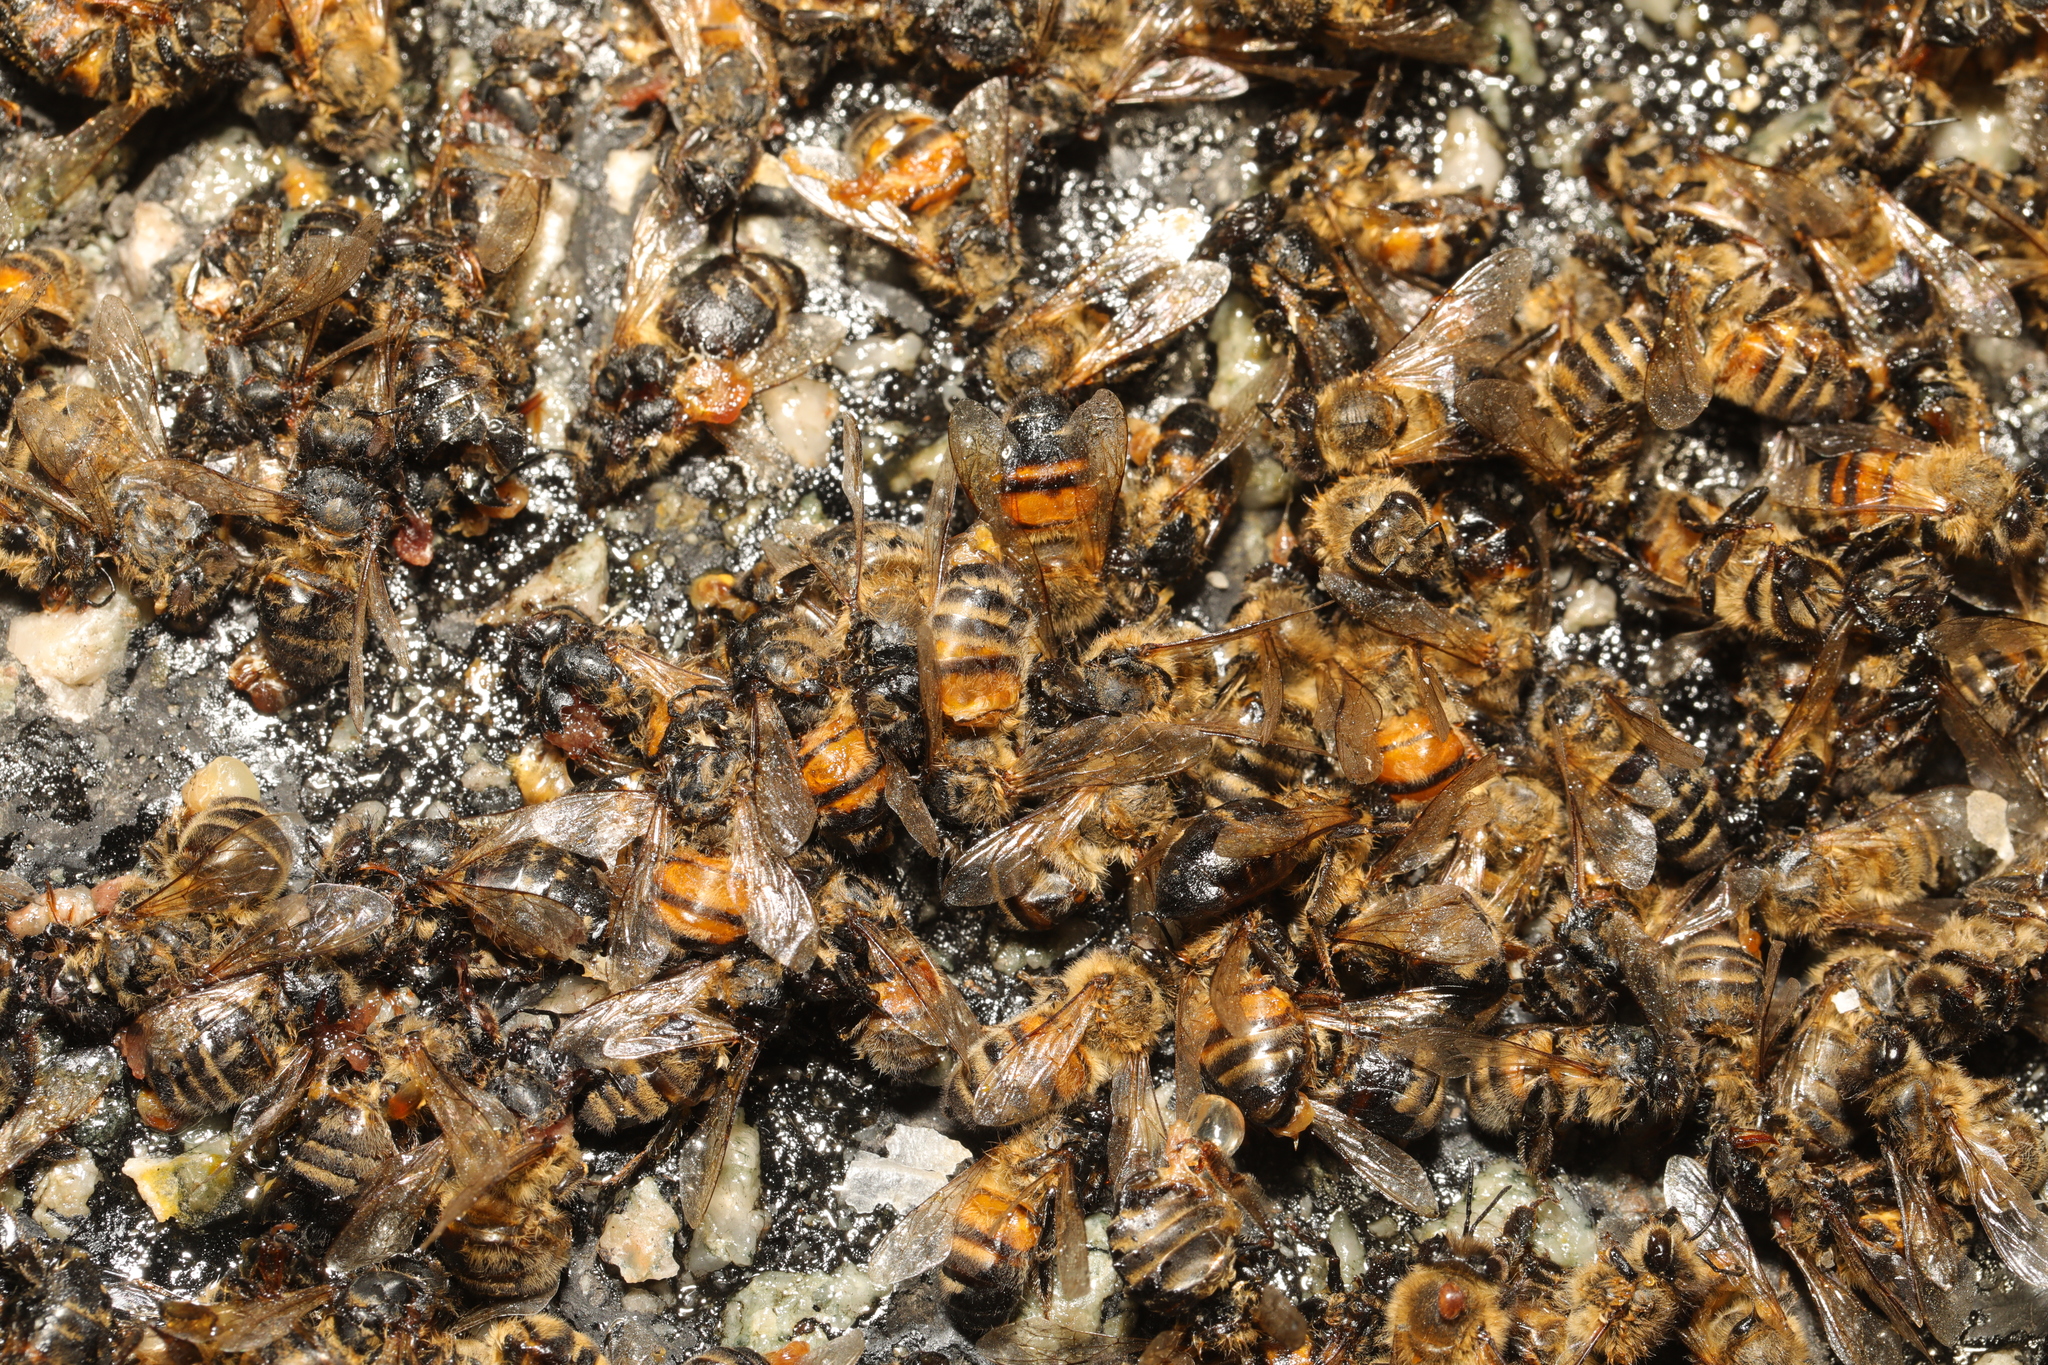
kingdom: Animalia
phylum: Arthropoda
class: Insecta
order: Hymenoptera
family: Apidae
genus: Apis
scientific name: Apis mellifera
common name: Honey bee
